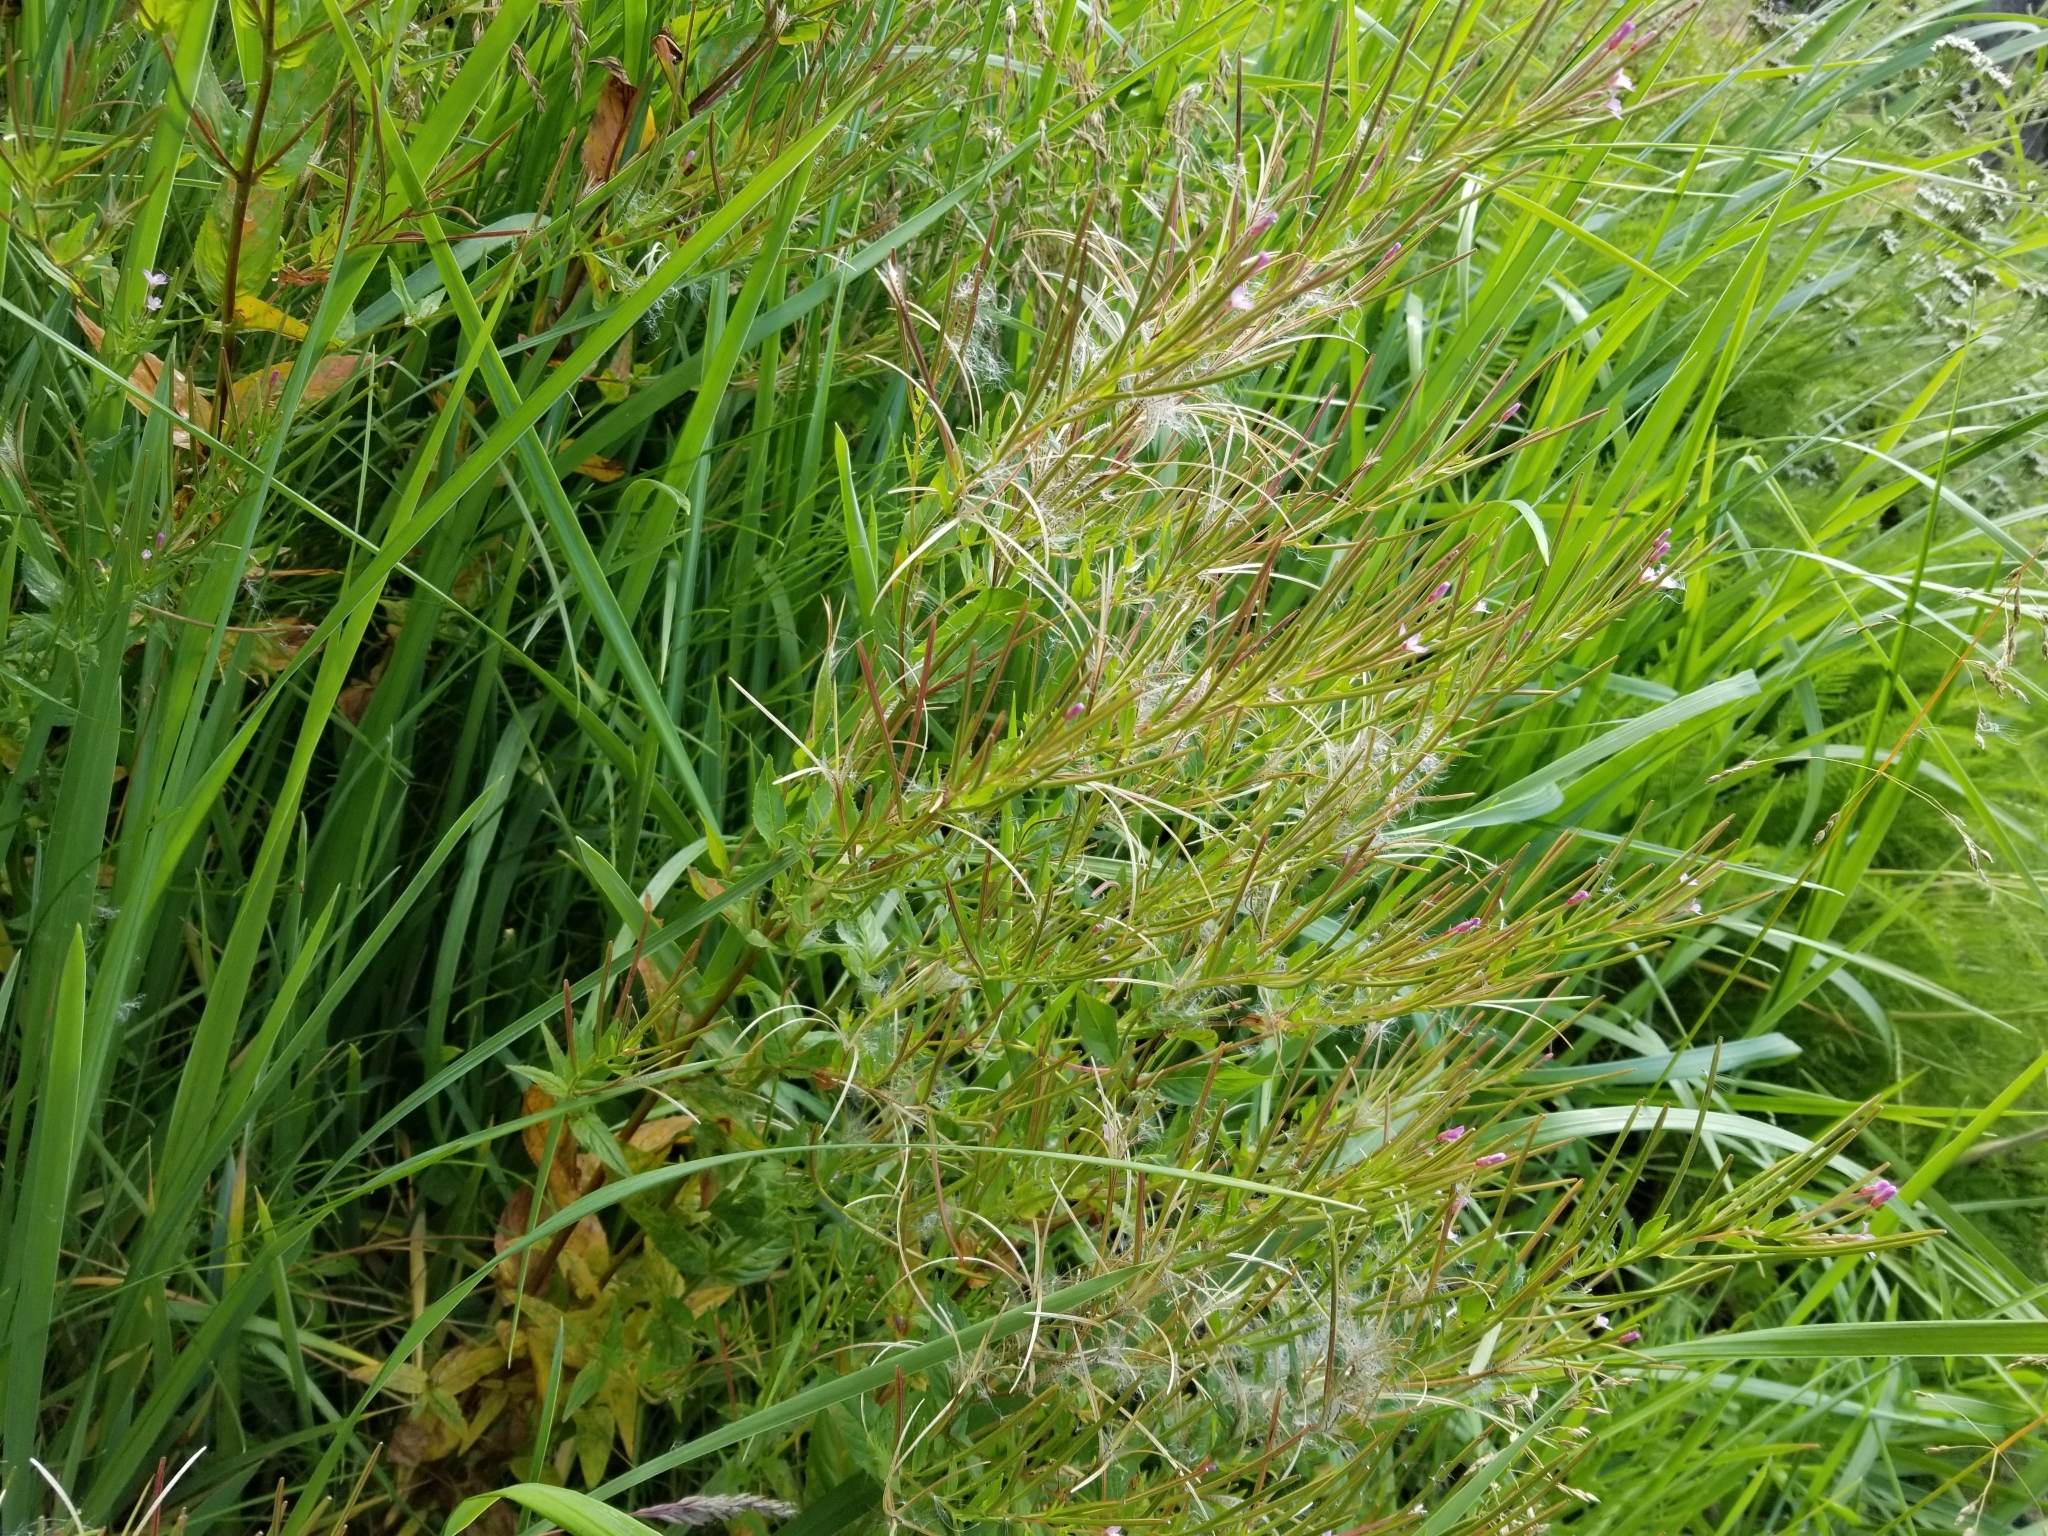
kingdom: Plantae
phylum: Tracheophyta
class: Magnoliopsida
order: Myrtales
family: Onagraceae
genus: Epilobium
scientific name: Epilobium ciliatum
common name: American willowherb
